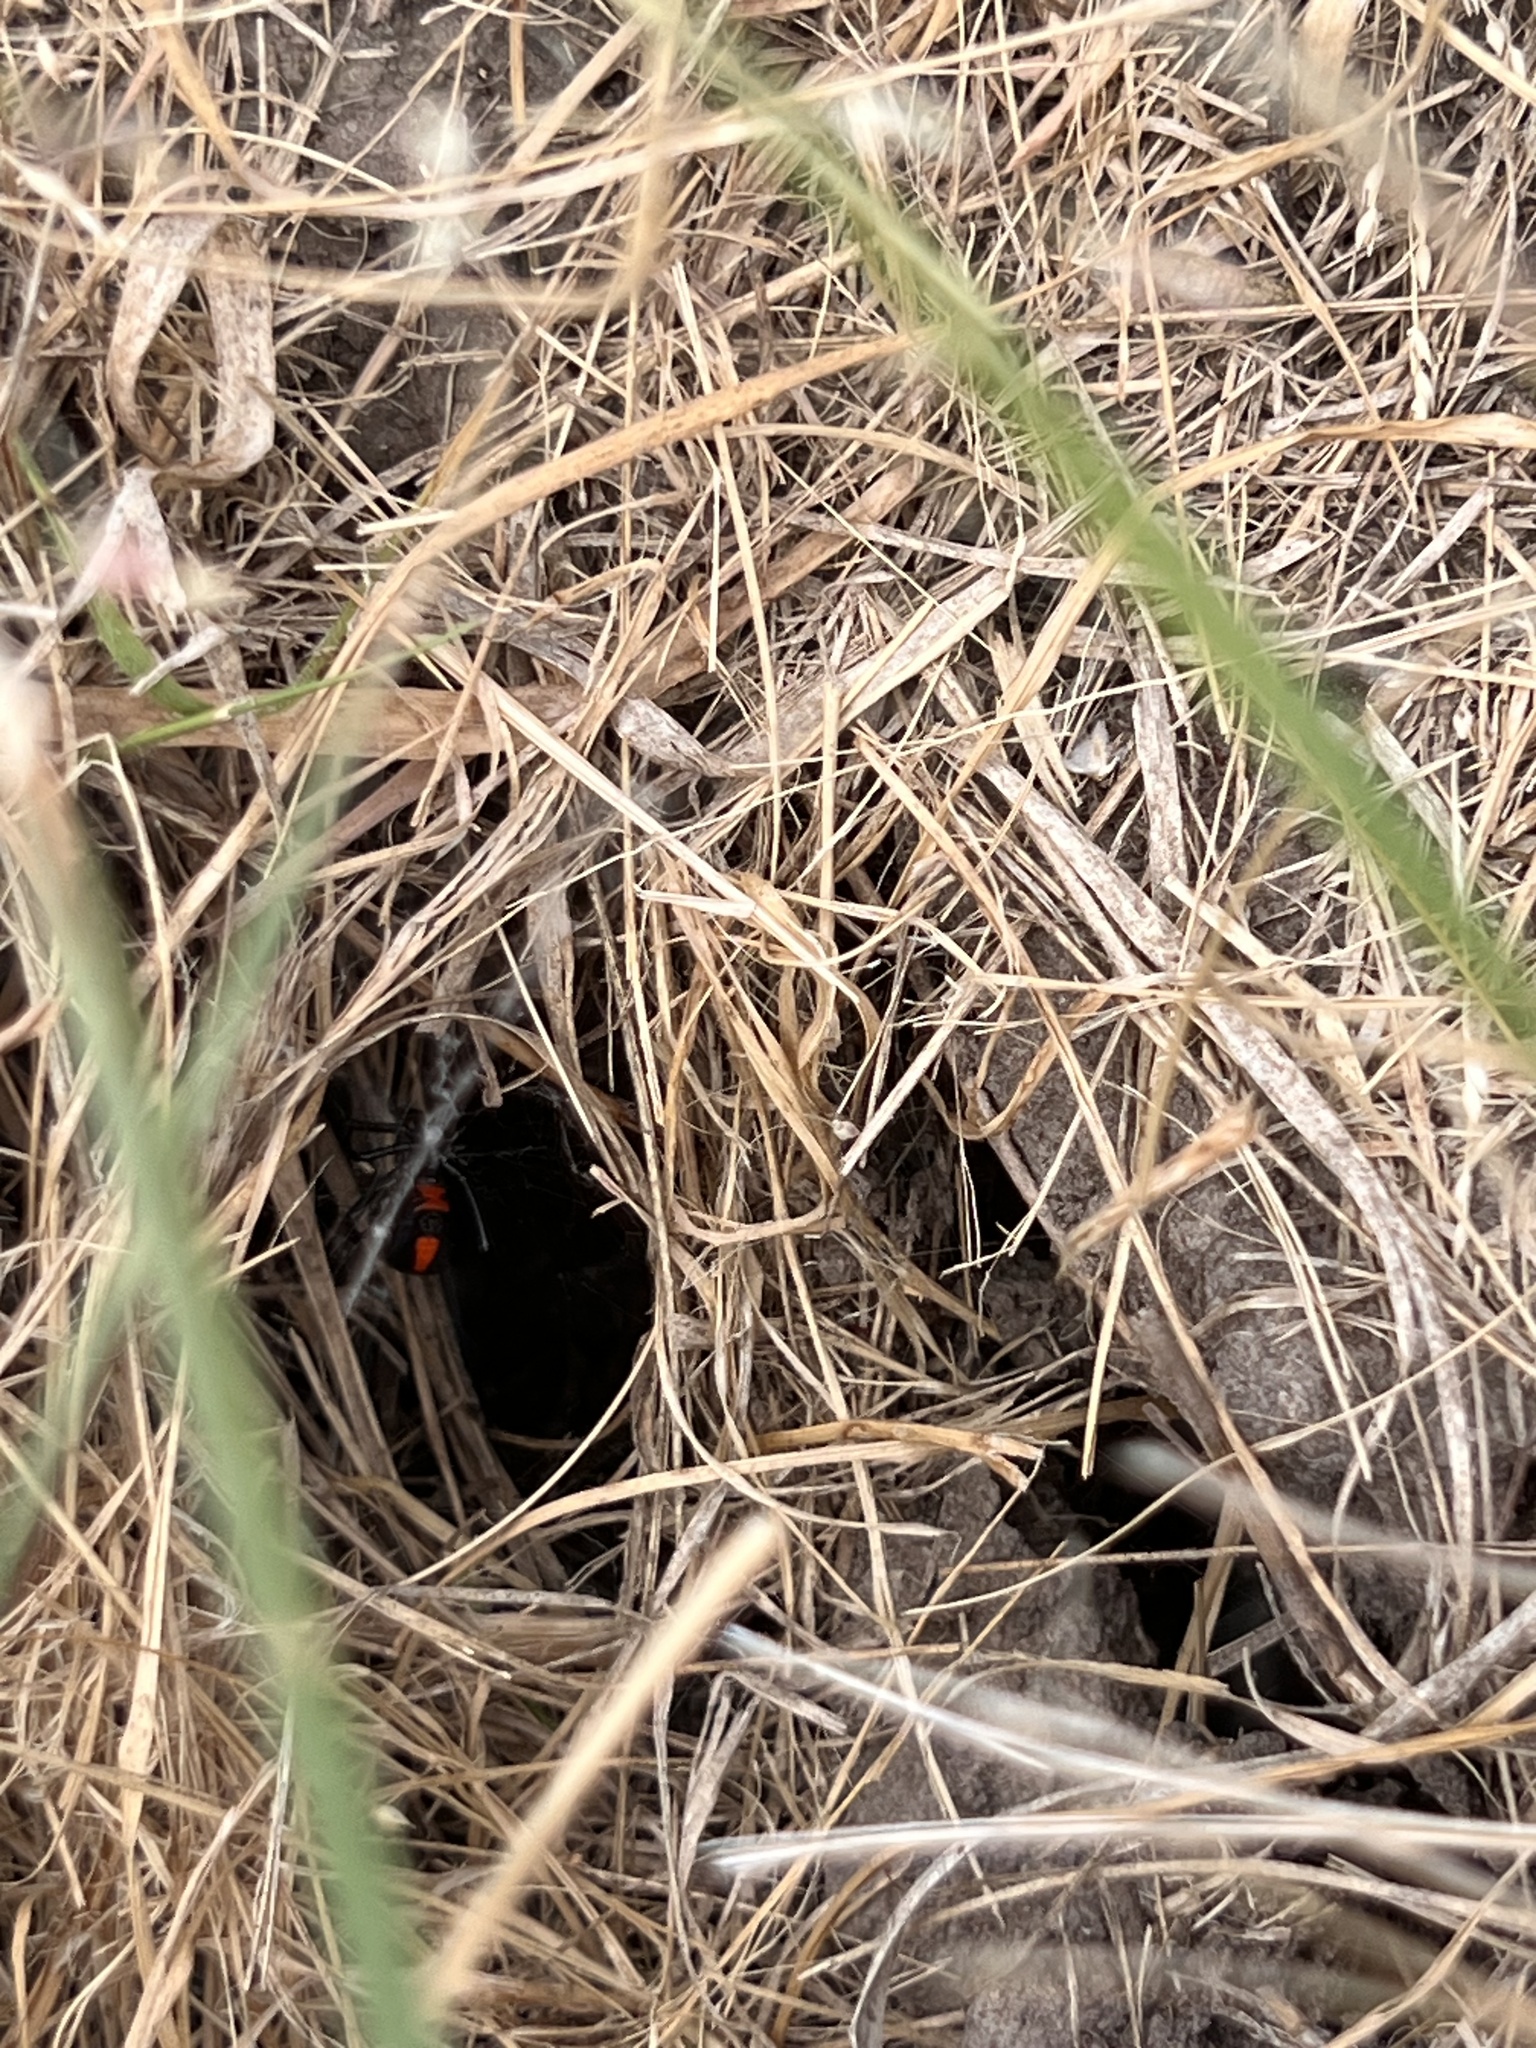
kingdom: Animalia
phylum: Arthropoda
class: Arachnida
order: Araneae
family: Theridiidae
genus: Latrodectus
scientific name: Latrodectus mactans
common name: Cobweb spiders
